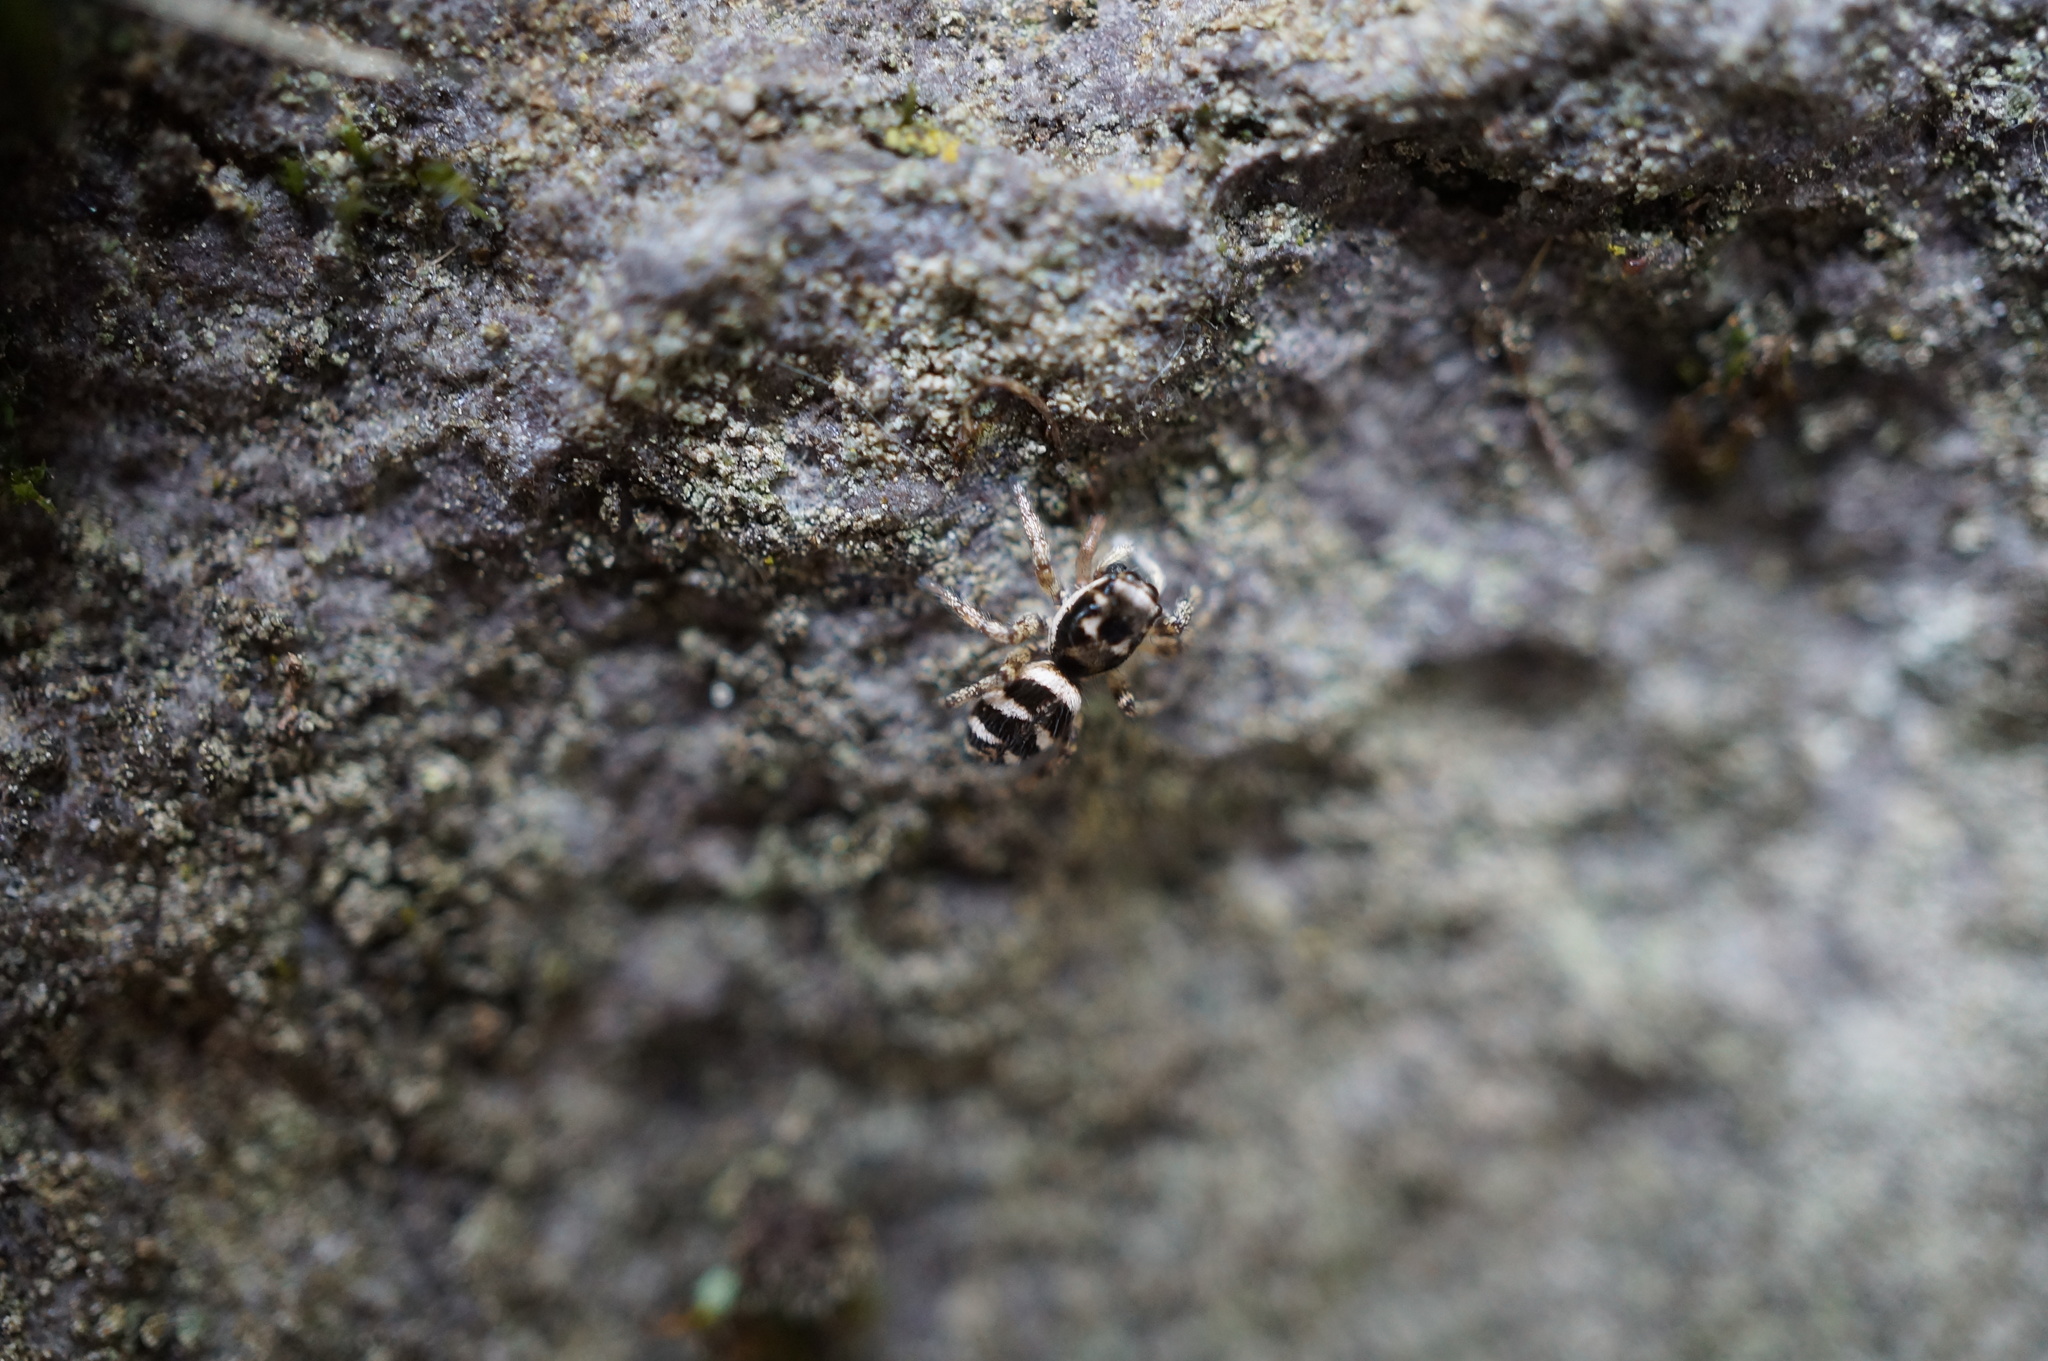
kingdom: Animalia
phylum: Arthropoda
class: Arachnida
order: Araneae
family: Salticidae
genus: Salticus
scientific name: Salticus scenicus
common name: Zebra jumper
